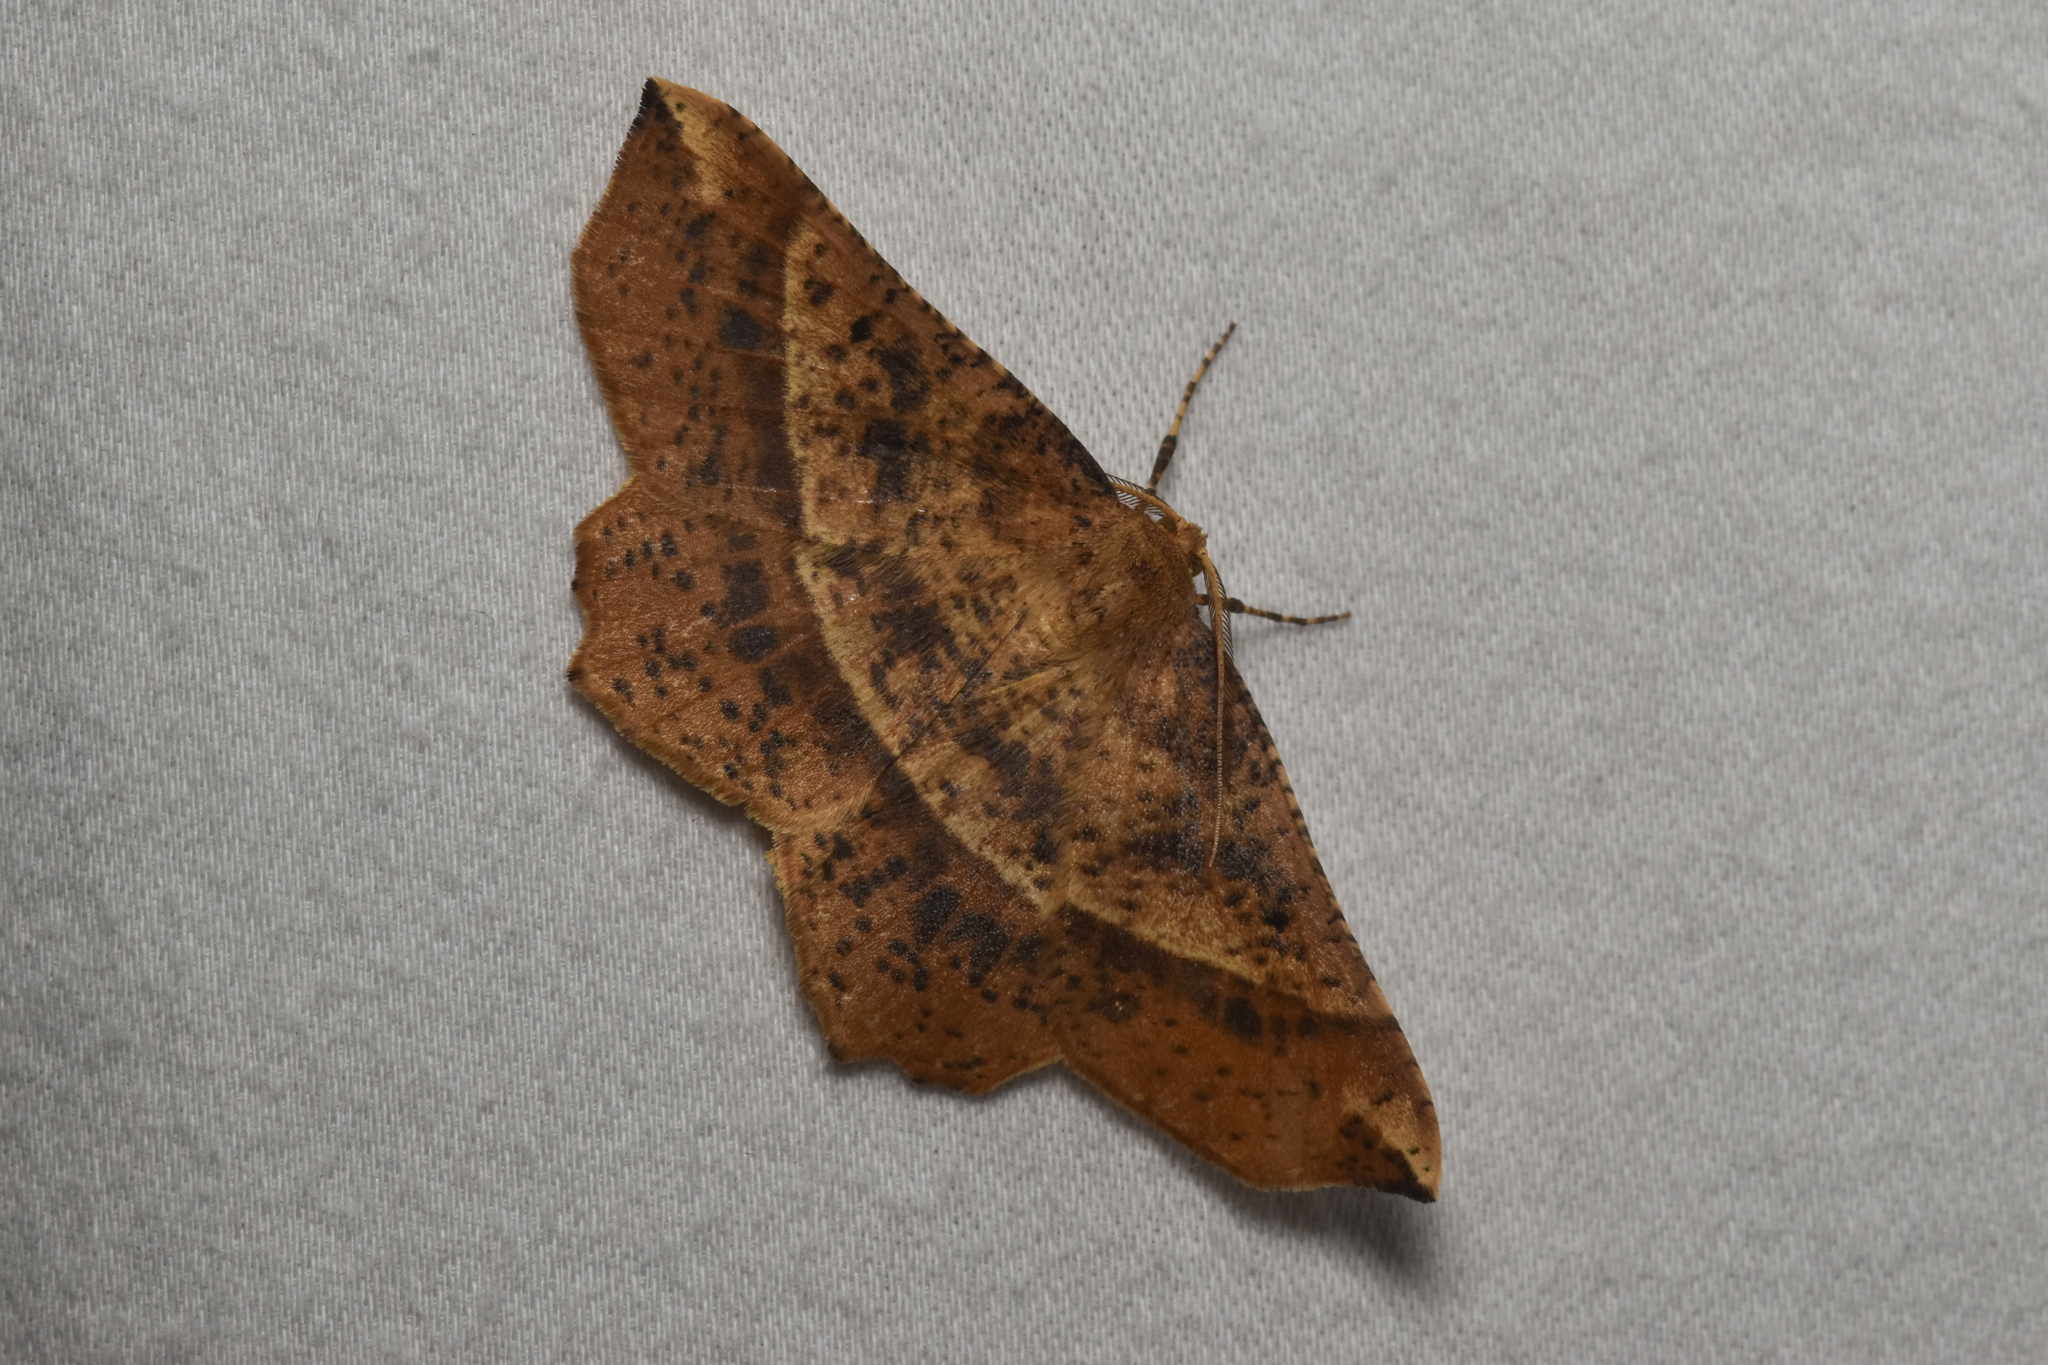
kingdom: Animalia
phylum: Arthropoda
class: Insecta
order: Lepidoptera
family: Geometridae
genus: Euchlaena
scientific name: Euchlaena tigrinaria
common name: Mottled euchlaena moth
